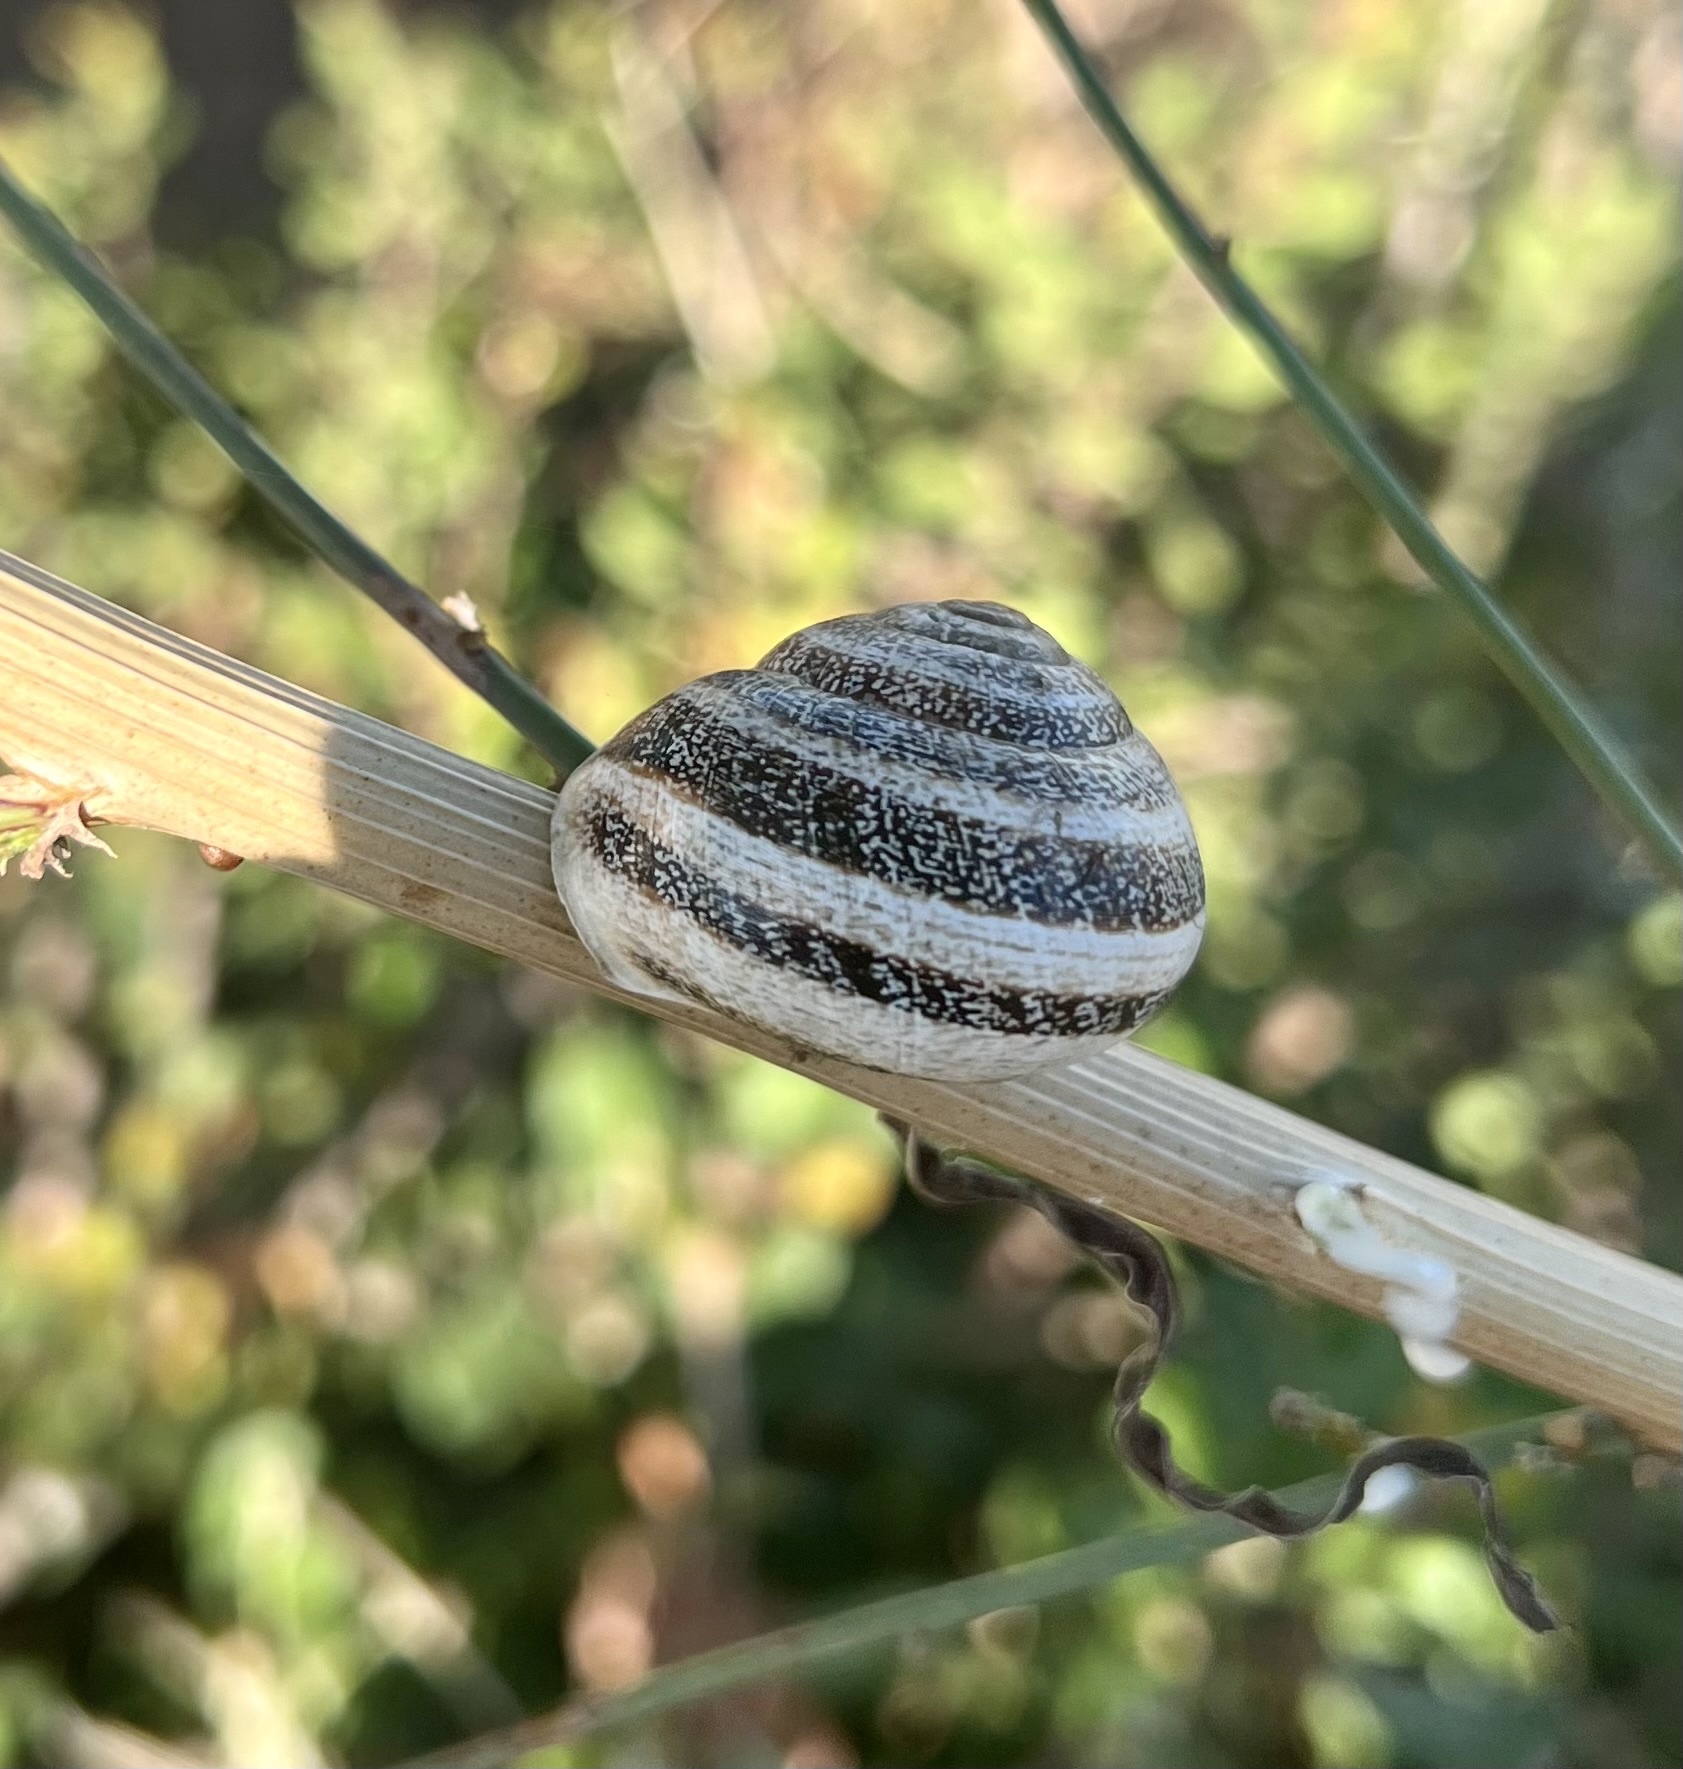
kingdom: Animalia
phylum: Mollusca
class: Gastropoda
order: Stylommatophora
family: Helicidae
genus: Otala
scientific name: Otala lactea
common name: Milk snail
